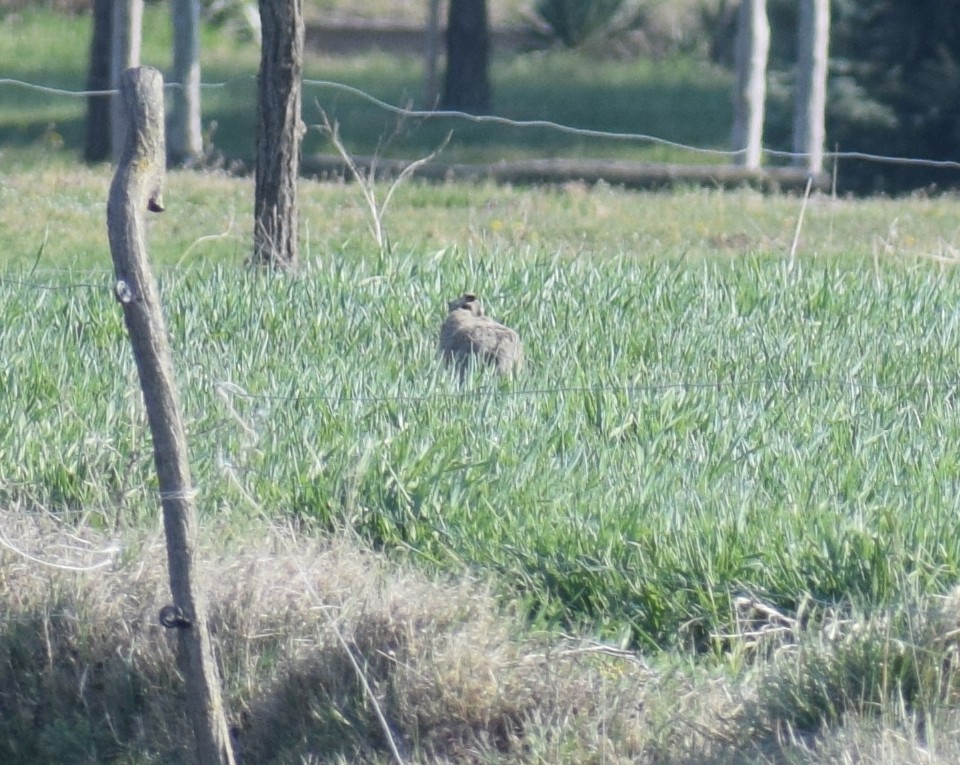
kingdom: Animalia
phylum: Chordata
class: Mammalia
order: Lagomorpha
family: Leporidae
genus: Lepus
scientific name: Lepus europaeus
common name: European hare
